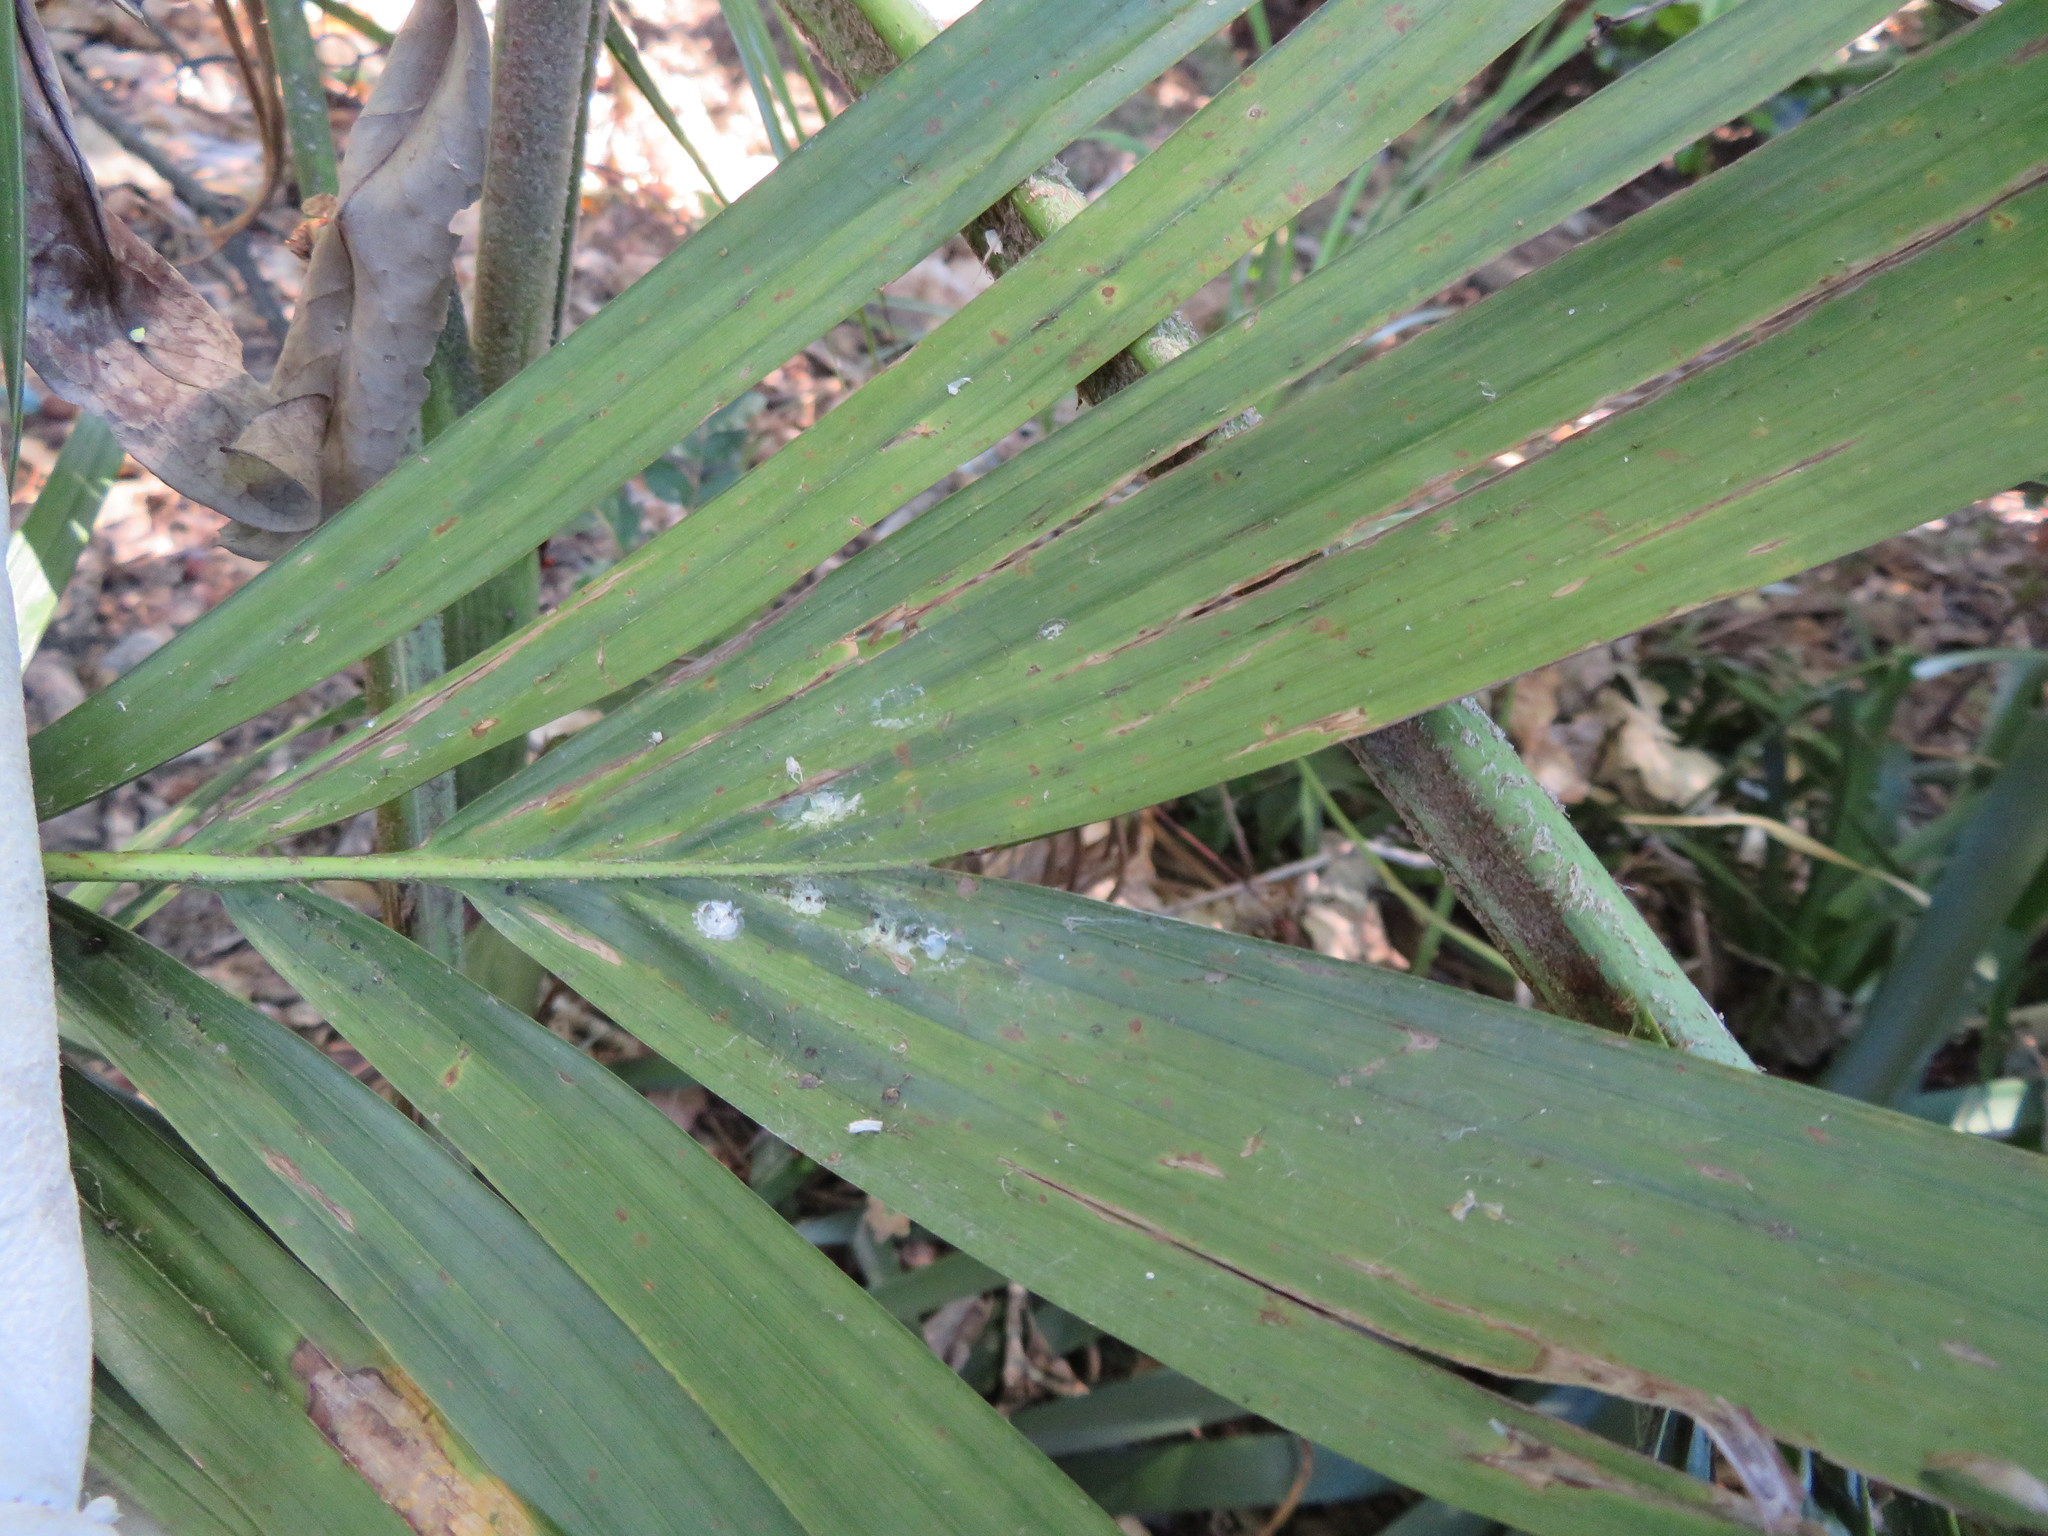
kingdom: Plantae
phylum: Tracheophyta
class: Liliopsida
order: Arecales
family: Arecaceae
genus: Archontophoenix
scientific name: Archontophoenix cunninghamiana
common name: Piccabeen bangalow palm
